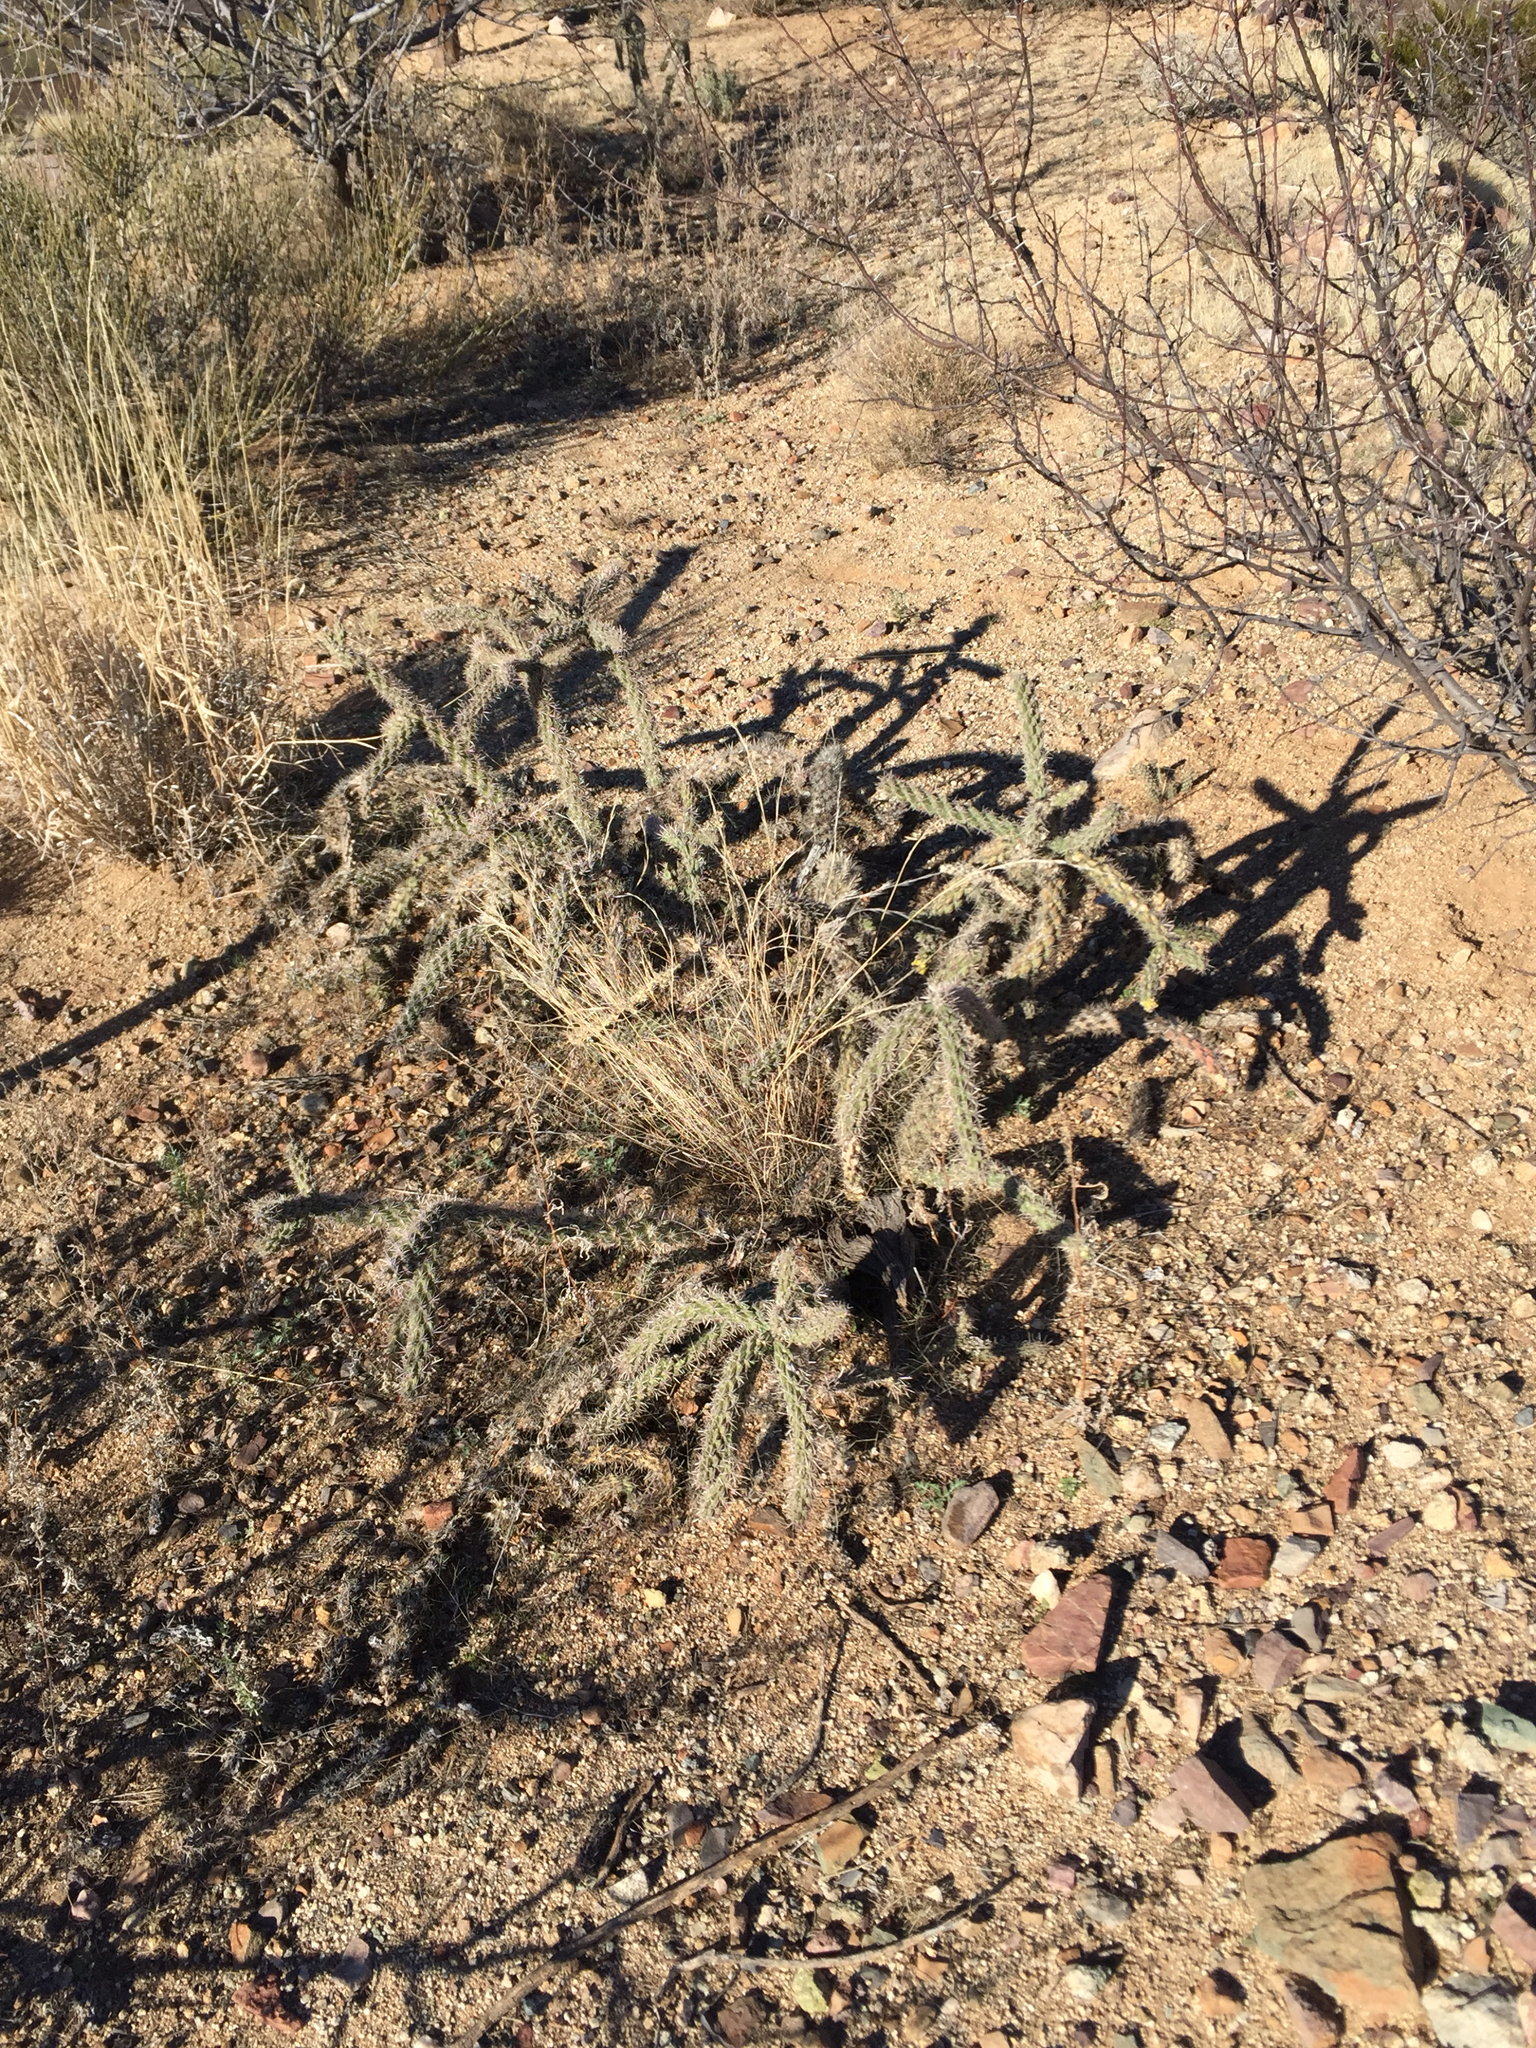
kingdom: Plantae
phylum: Tracheophyta
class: Magnoliopsida
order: Caryophyllales
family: Cactaceae
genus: Cylindropuntia
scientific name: Cylindropuntia imbricata
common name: Candelabrum cactus
